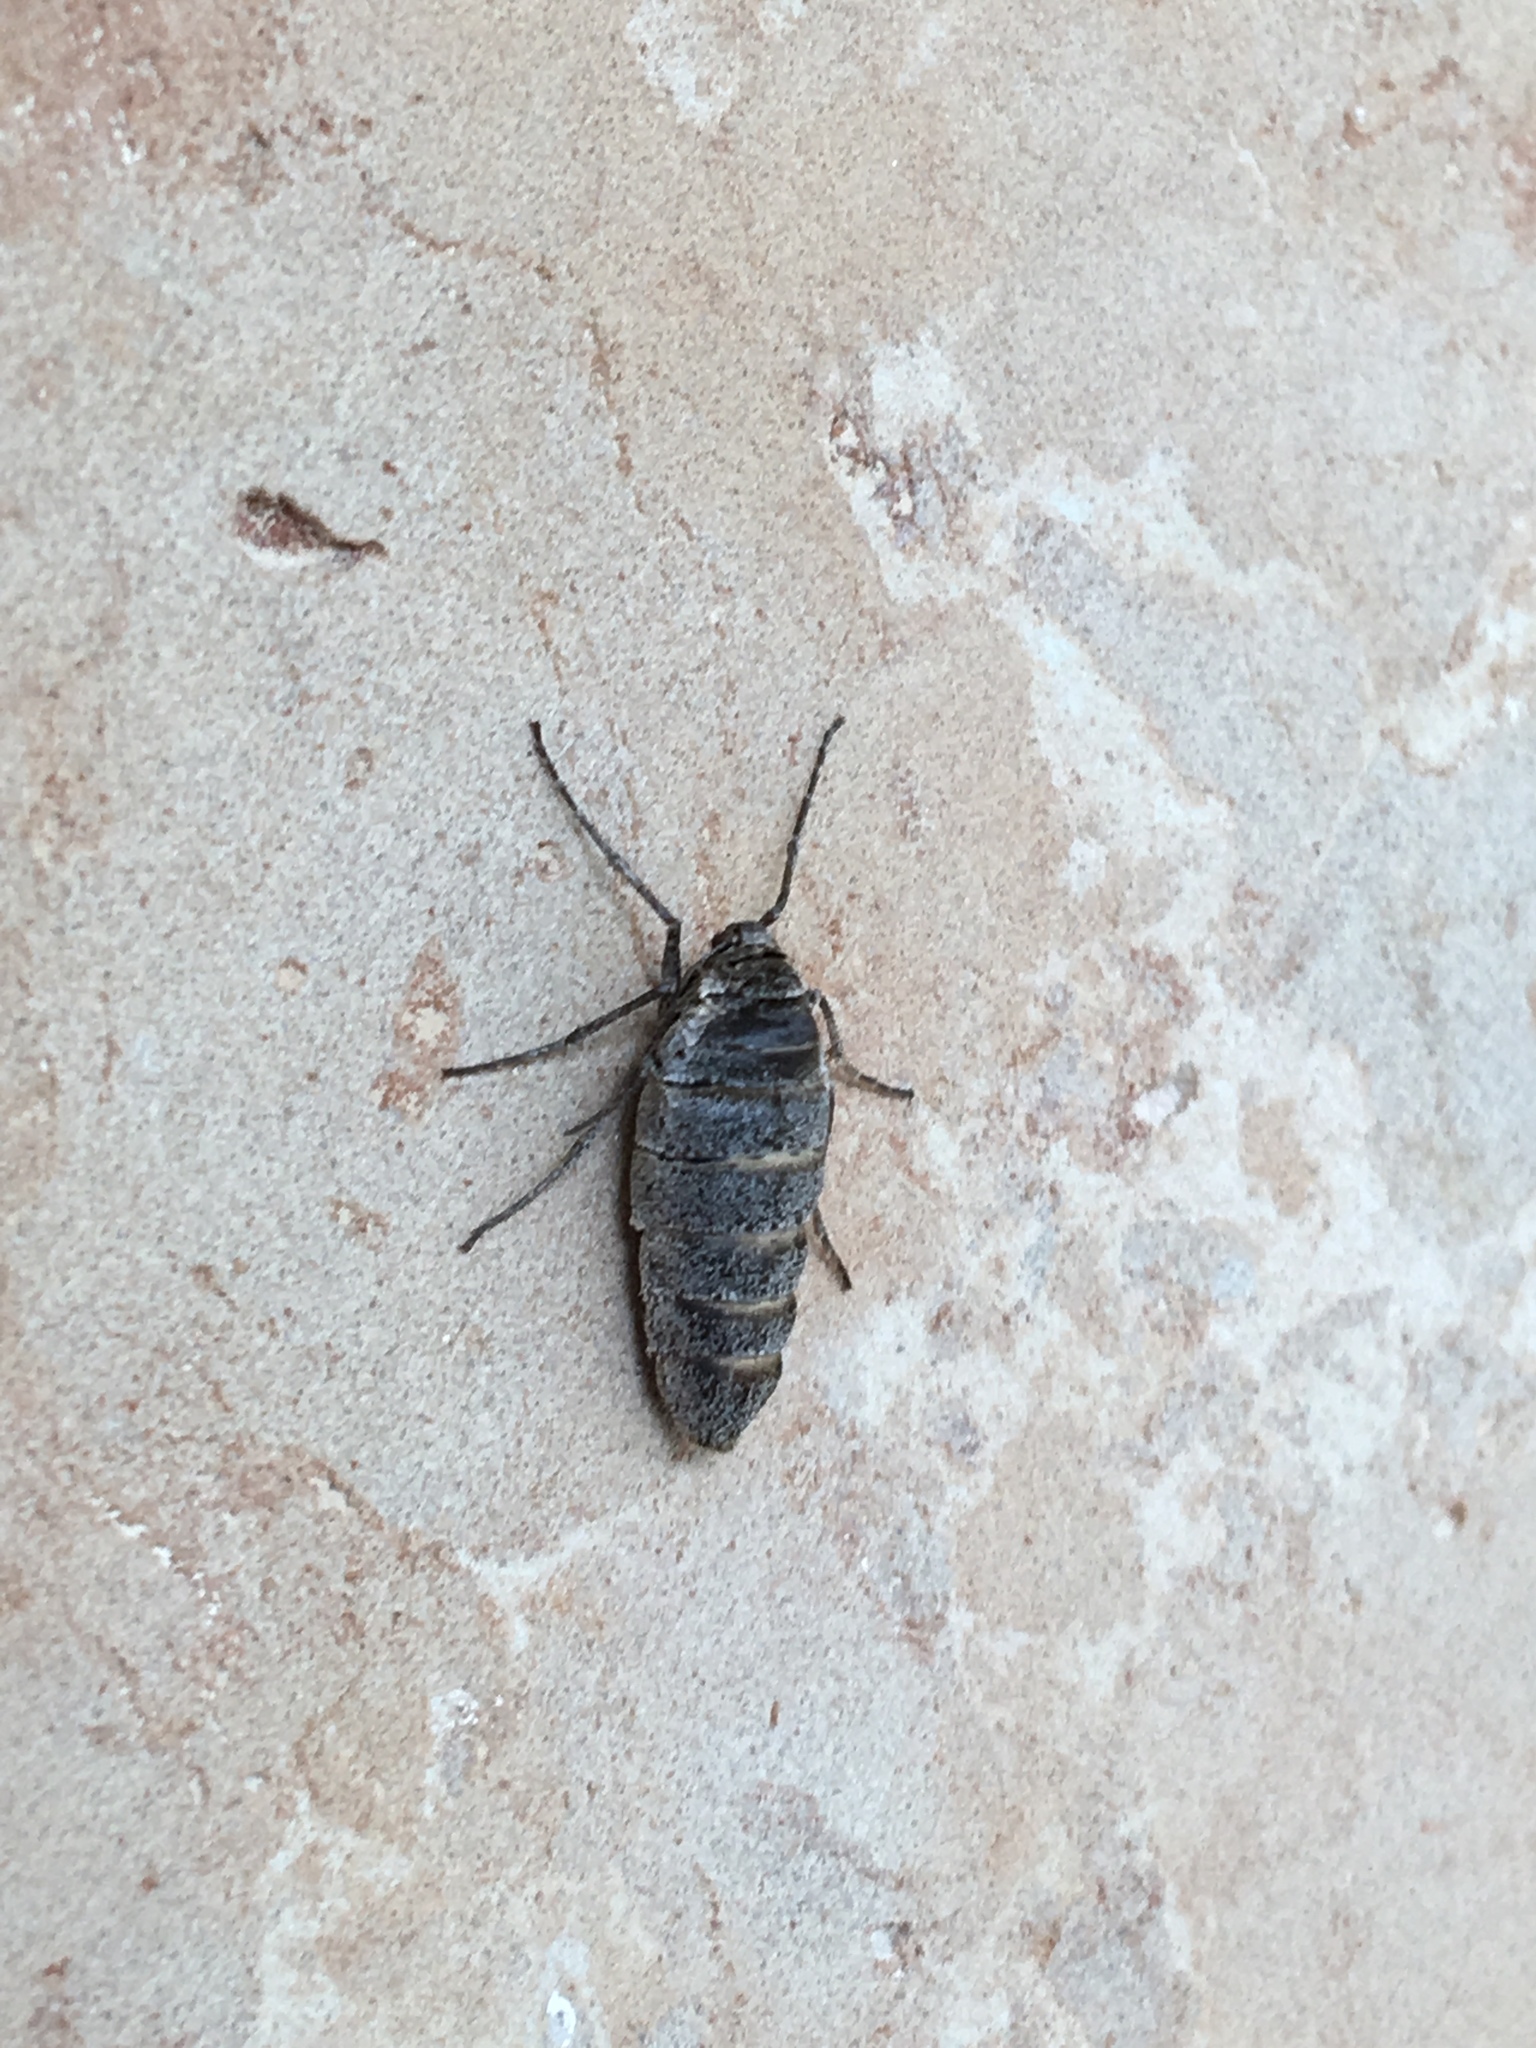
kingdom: Animalia
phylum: Arthropoda
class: Insecta
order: Lepidoptera
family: Geometridae
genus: Alsophila
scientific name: Alsophila pometaria
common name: Fall cankerworm
